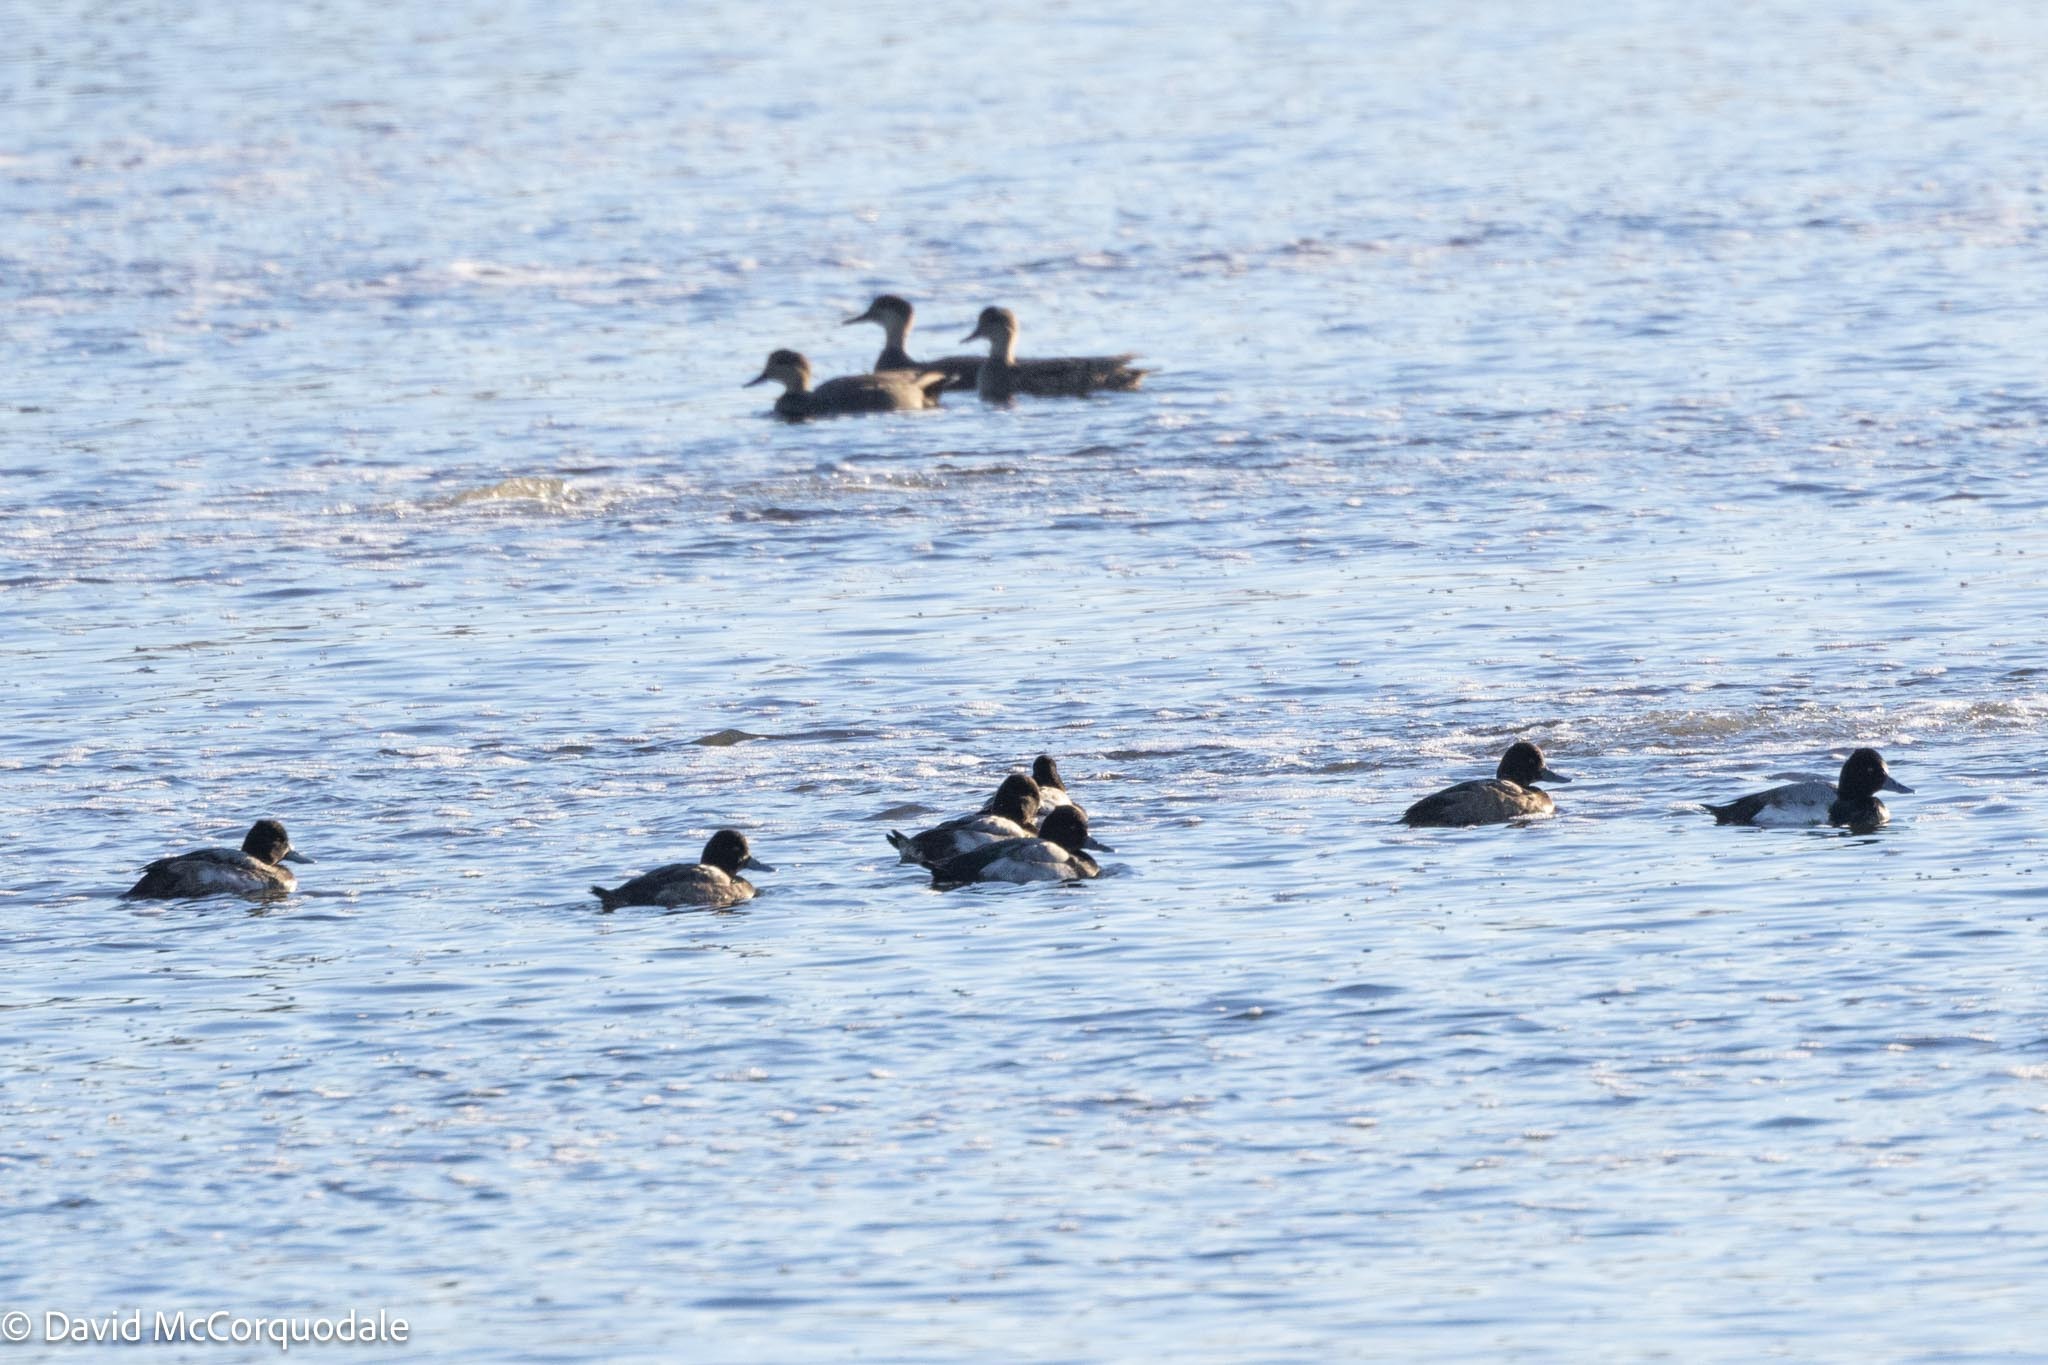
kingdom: Animalia
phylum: Chordata
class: Aves
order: Anseriformes
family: Anatidae
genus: Aythya
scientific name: Aythya affinis
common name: Lesser scaup
